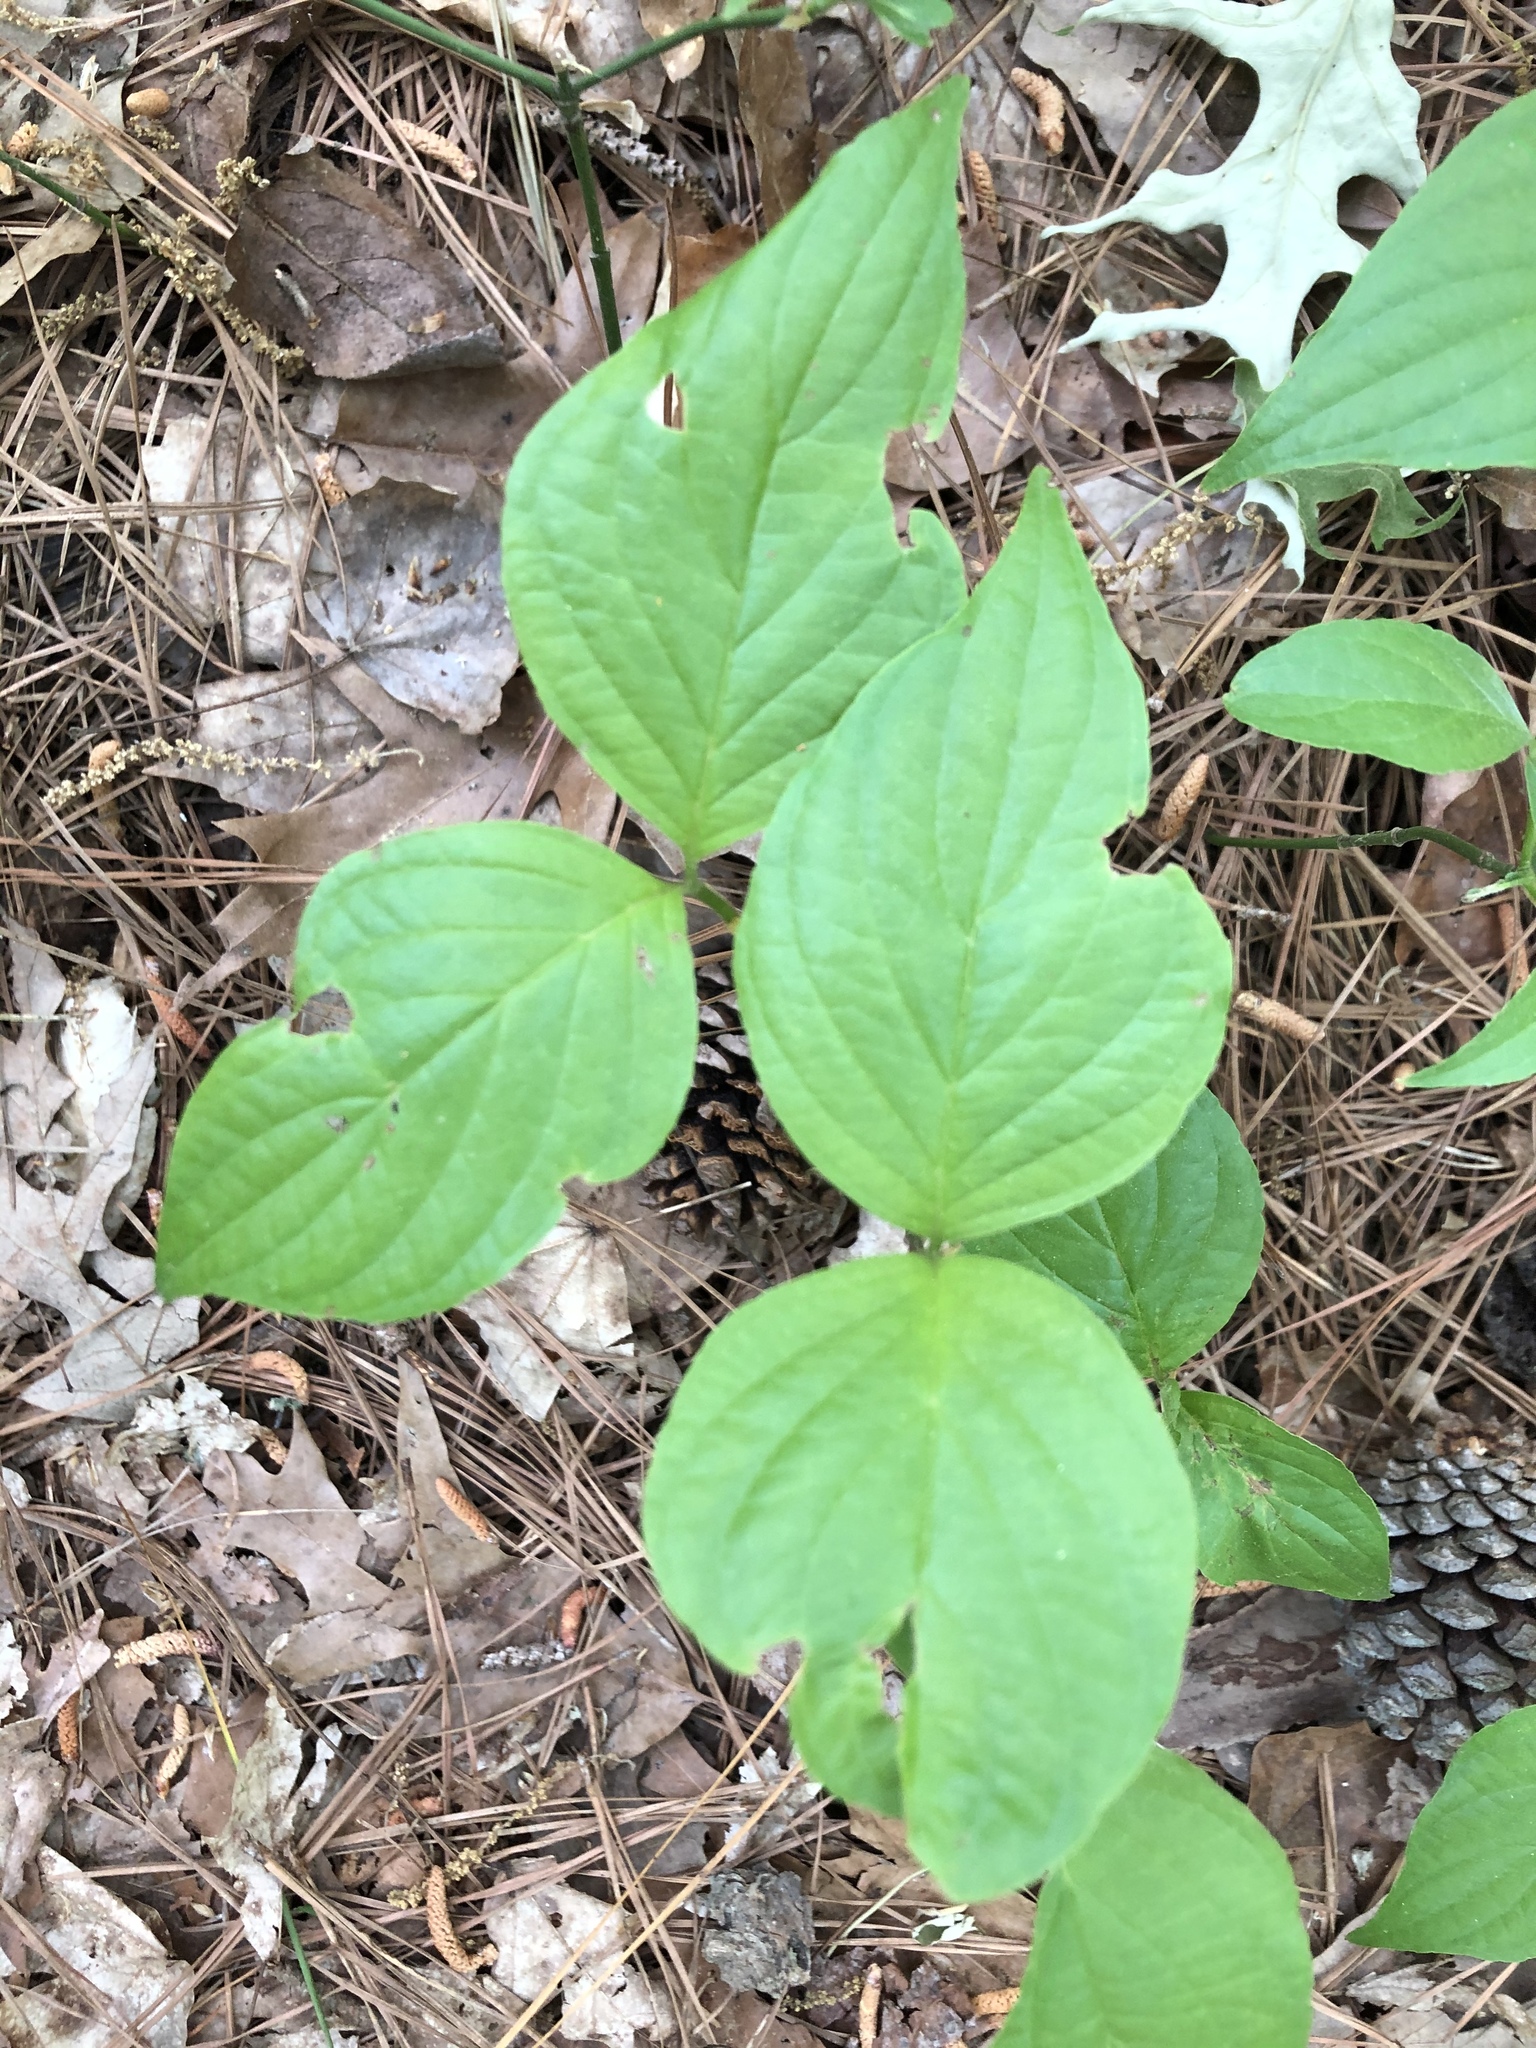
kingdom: Plantae
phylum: Tracheophyta
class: Magnoliopsida
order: Cornales
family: Cornaceae
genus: Cornus
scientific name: Cornus florida
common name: Flowering dogwood
